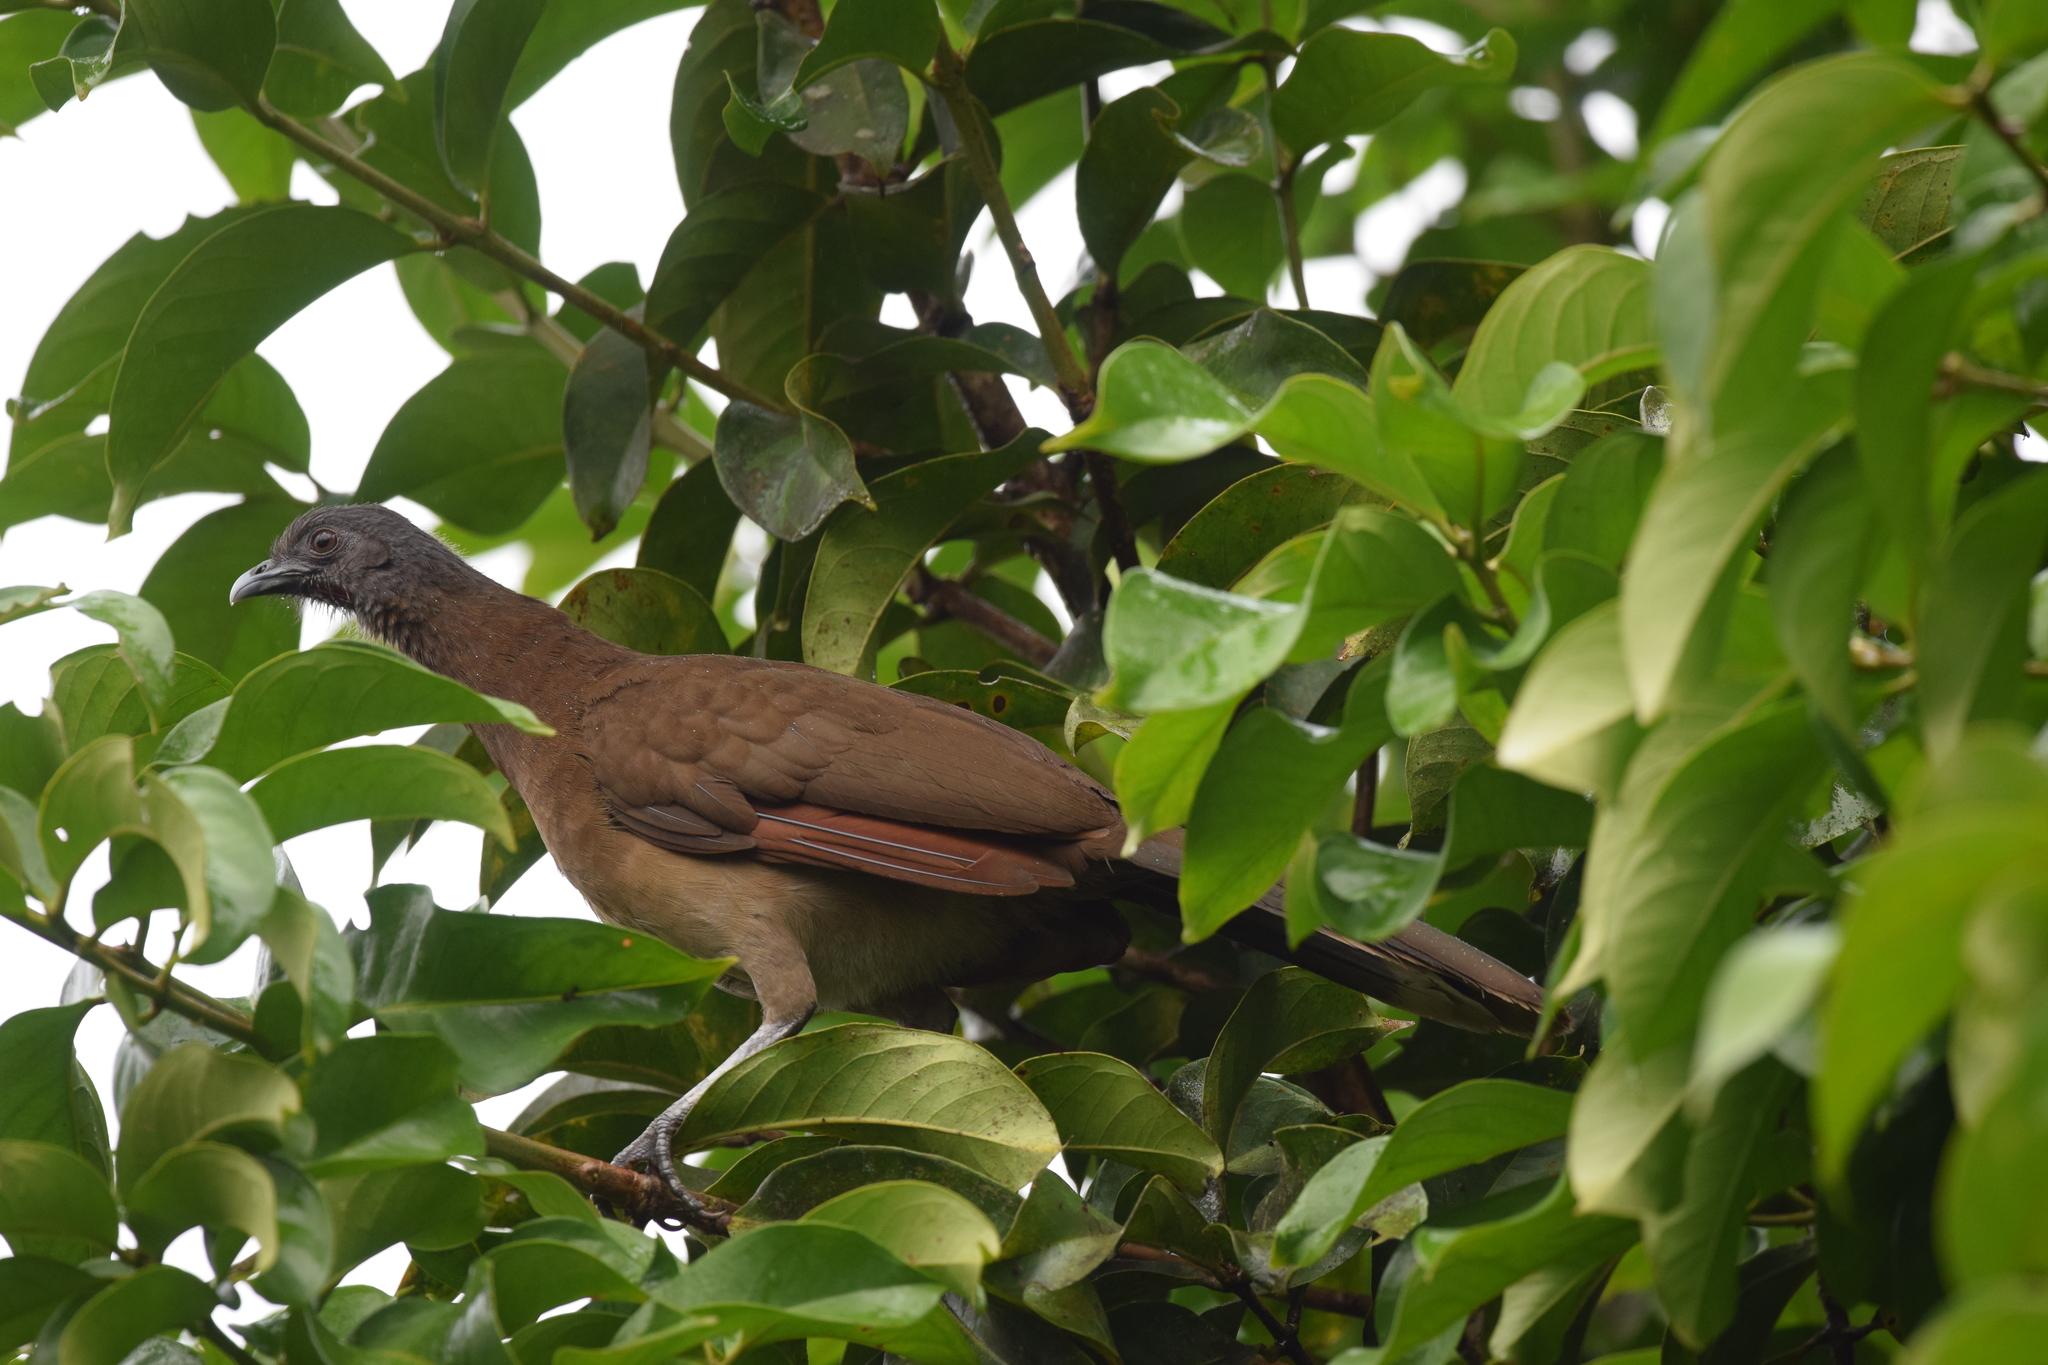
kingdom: Animalia
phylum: Chordata
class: Aves
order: Galliformes
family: Cracidae
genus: Ortalis
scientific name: Ortalis cinereiceps
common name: Grey-headed chachalaca
